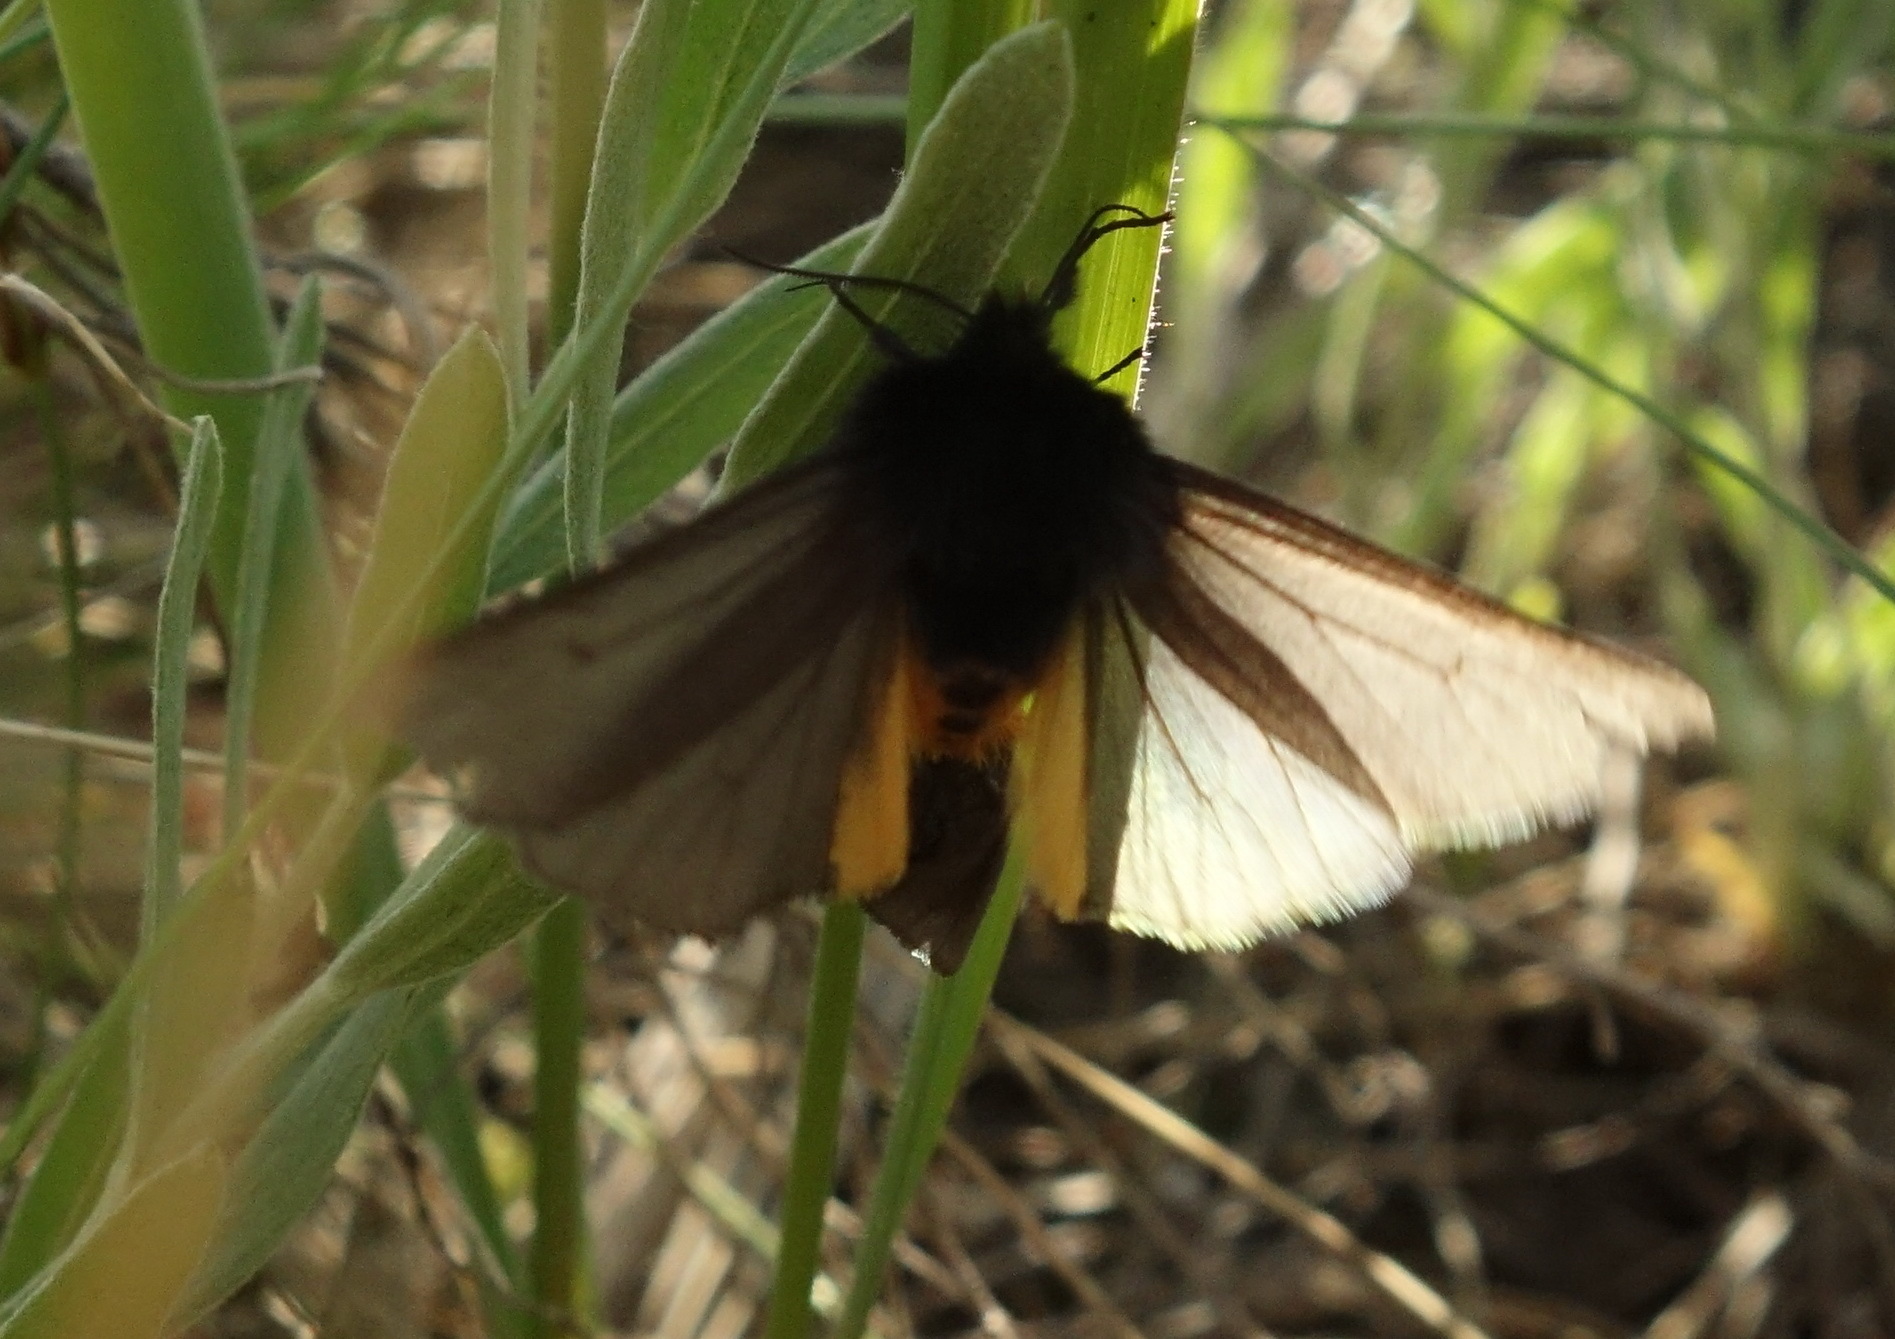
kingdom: Animalia
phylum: Arthropoda
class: Insecta
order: Lepidoptera
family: Erebidae
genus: Epatolmis
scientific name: Epatolmis luctifera
